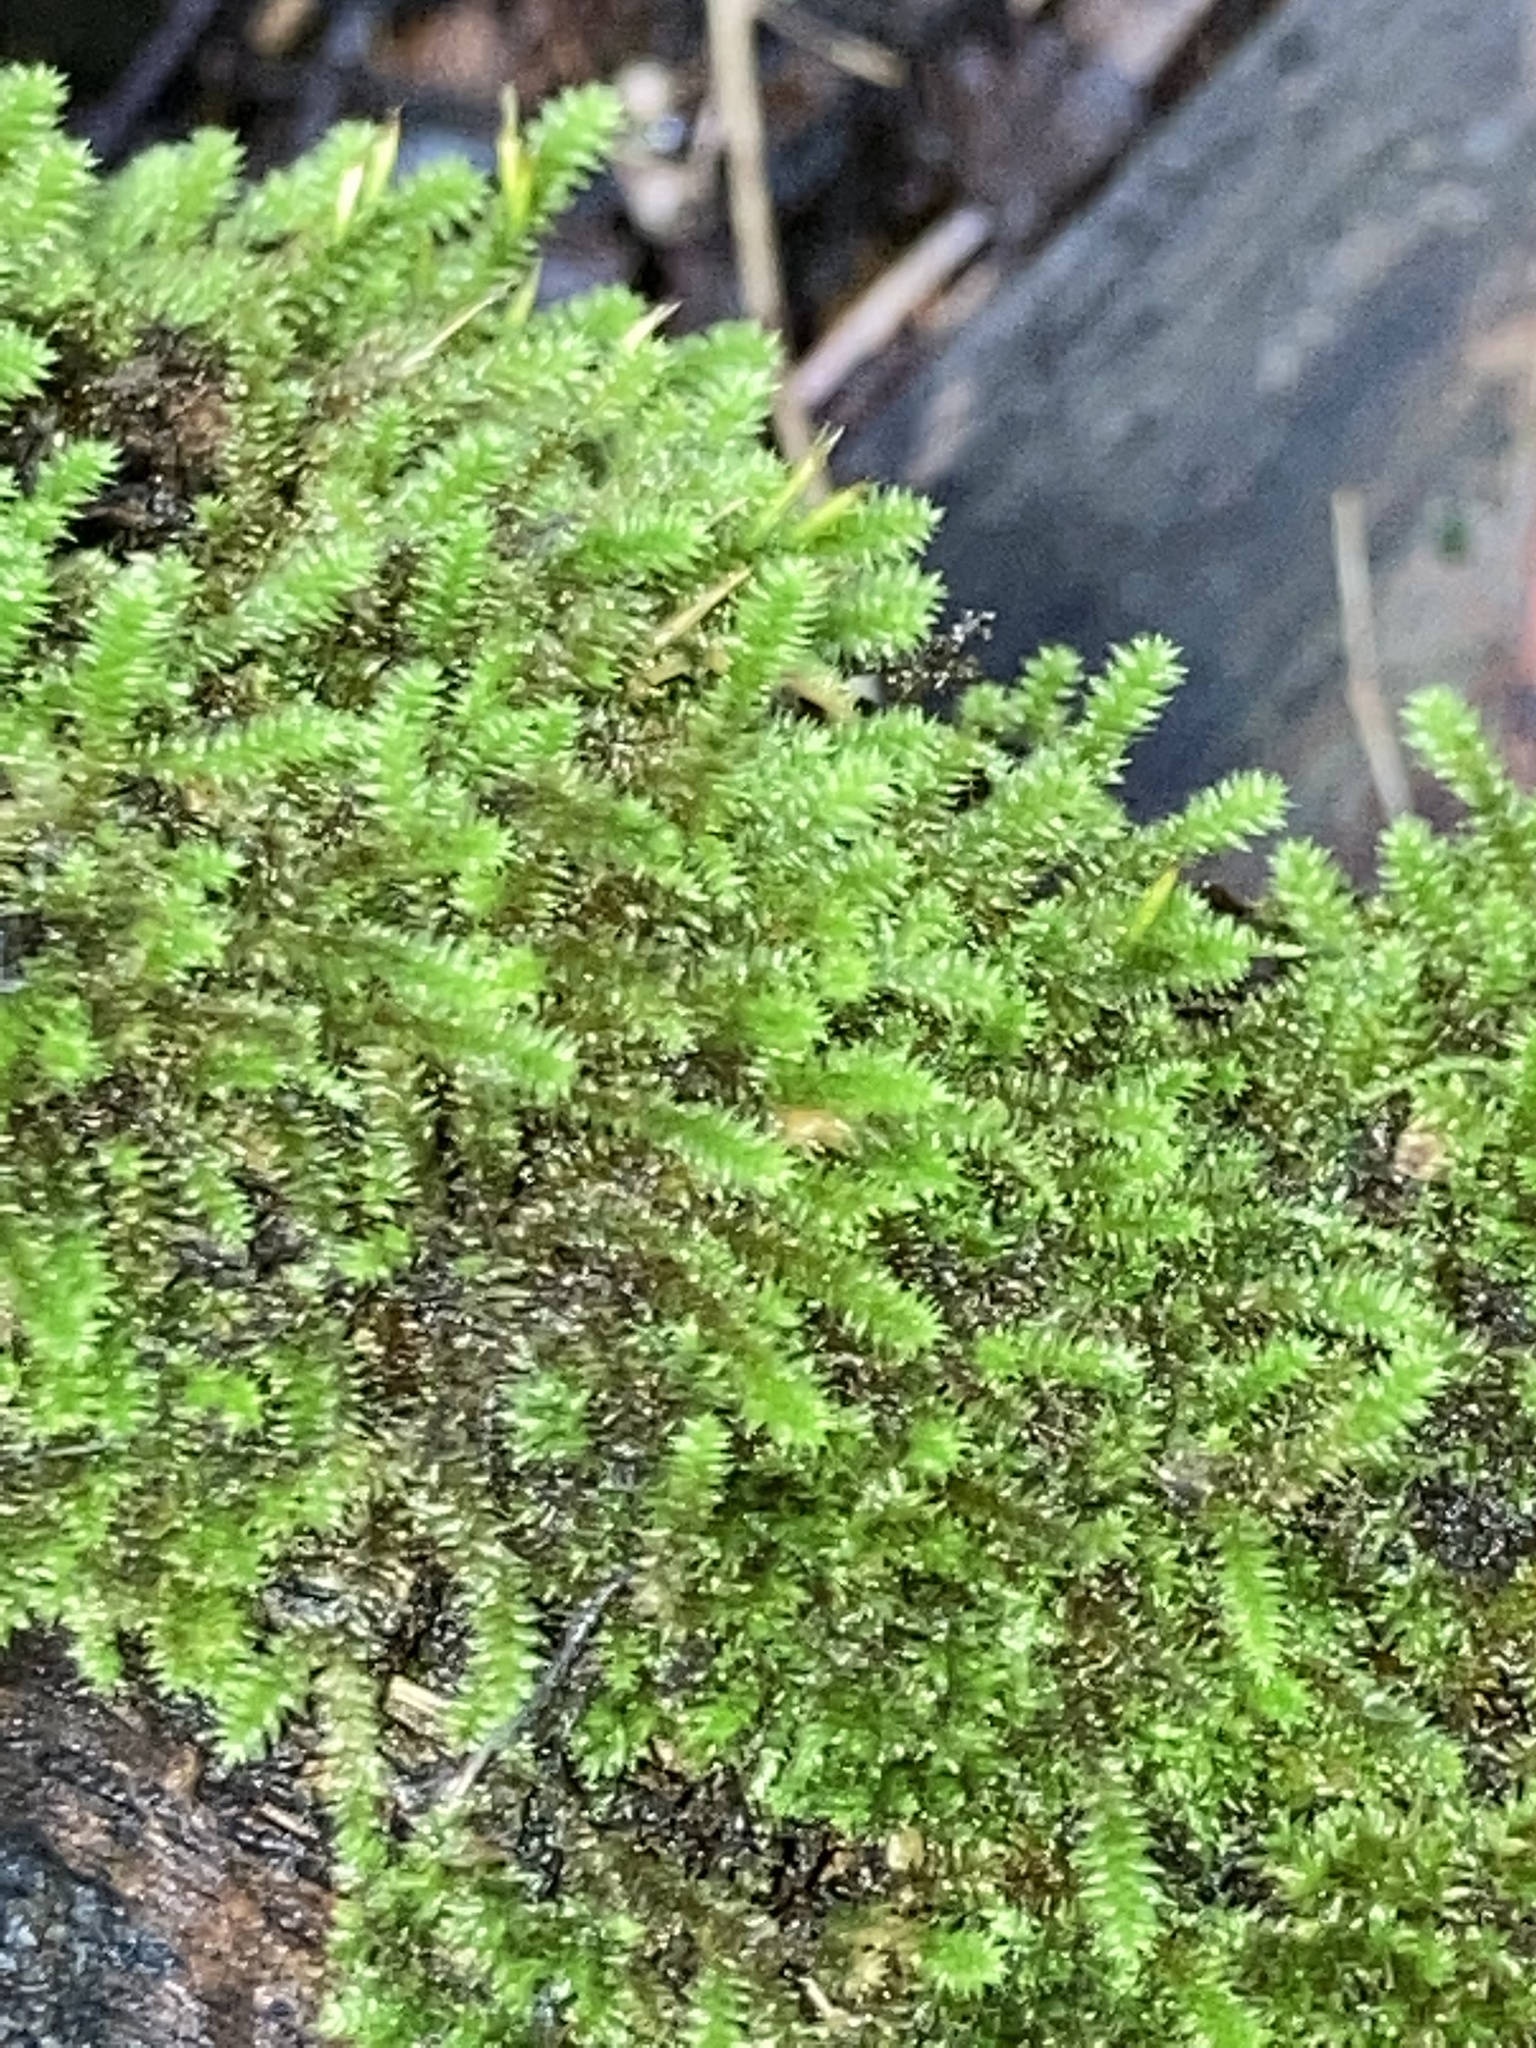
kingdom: Plantae
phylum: Bryophyta
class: Bryopsida
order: Hypnales
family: Leucodontaceae
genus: Leucodon
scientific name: Leucodon julaceus
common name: Smooth hook moss
